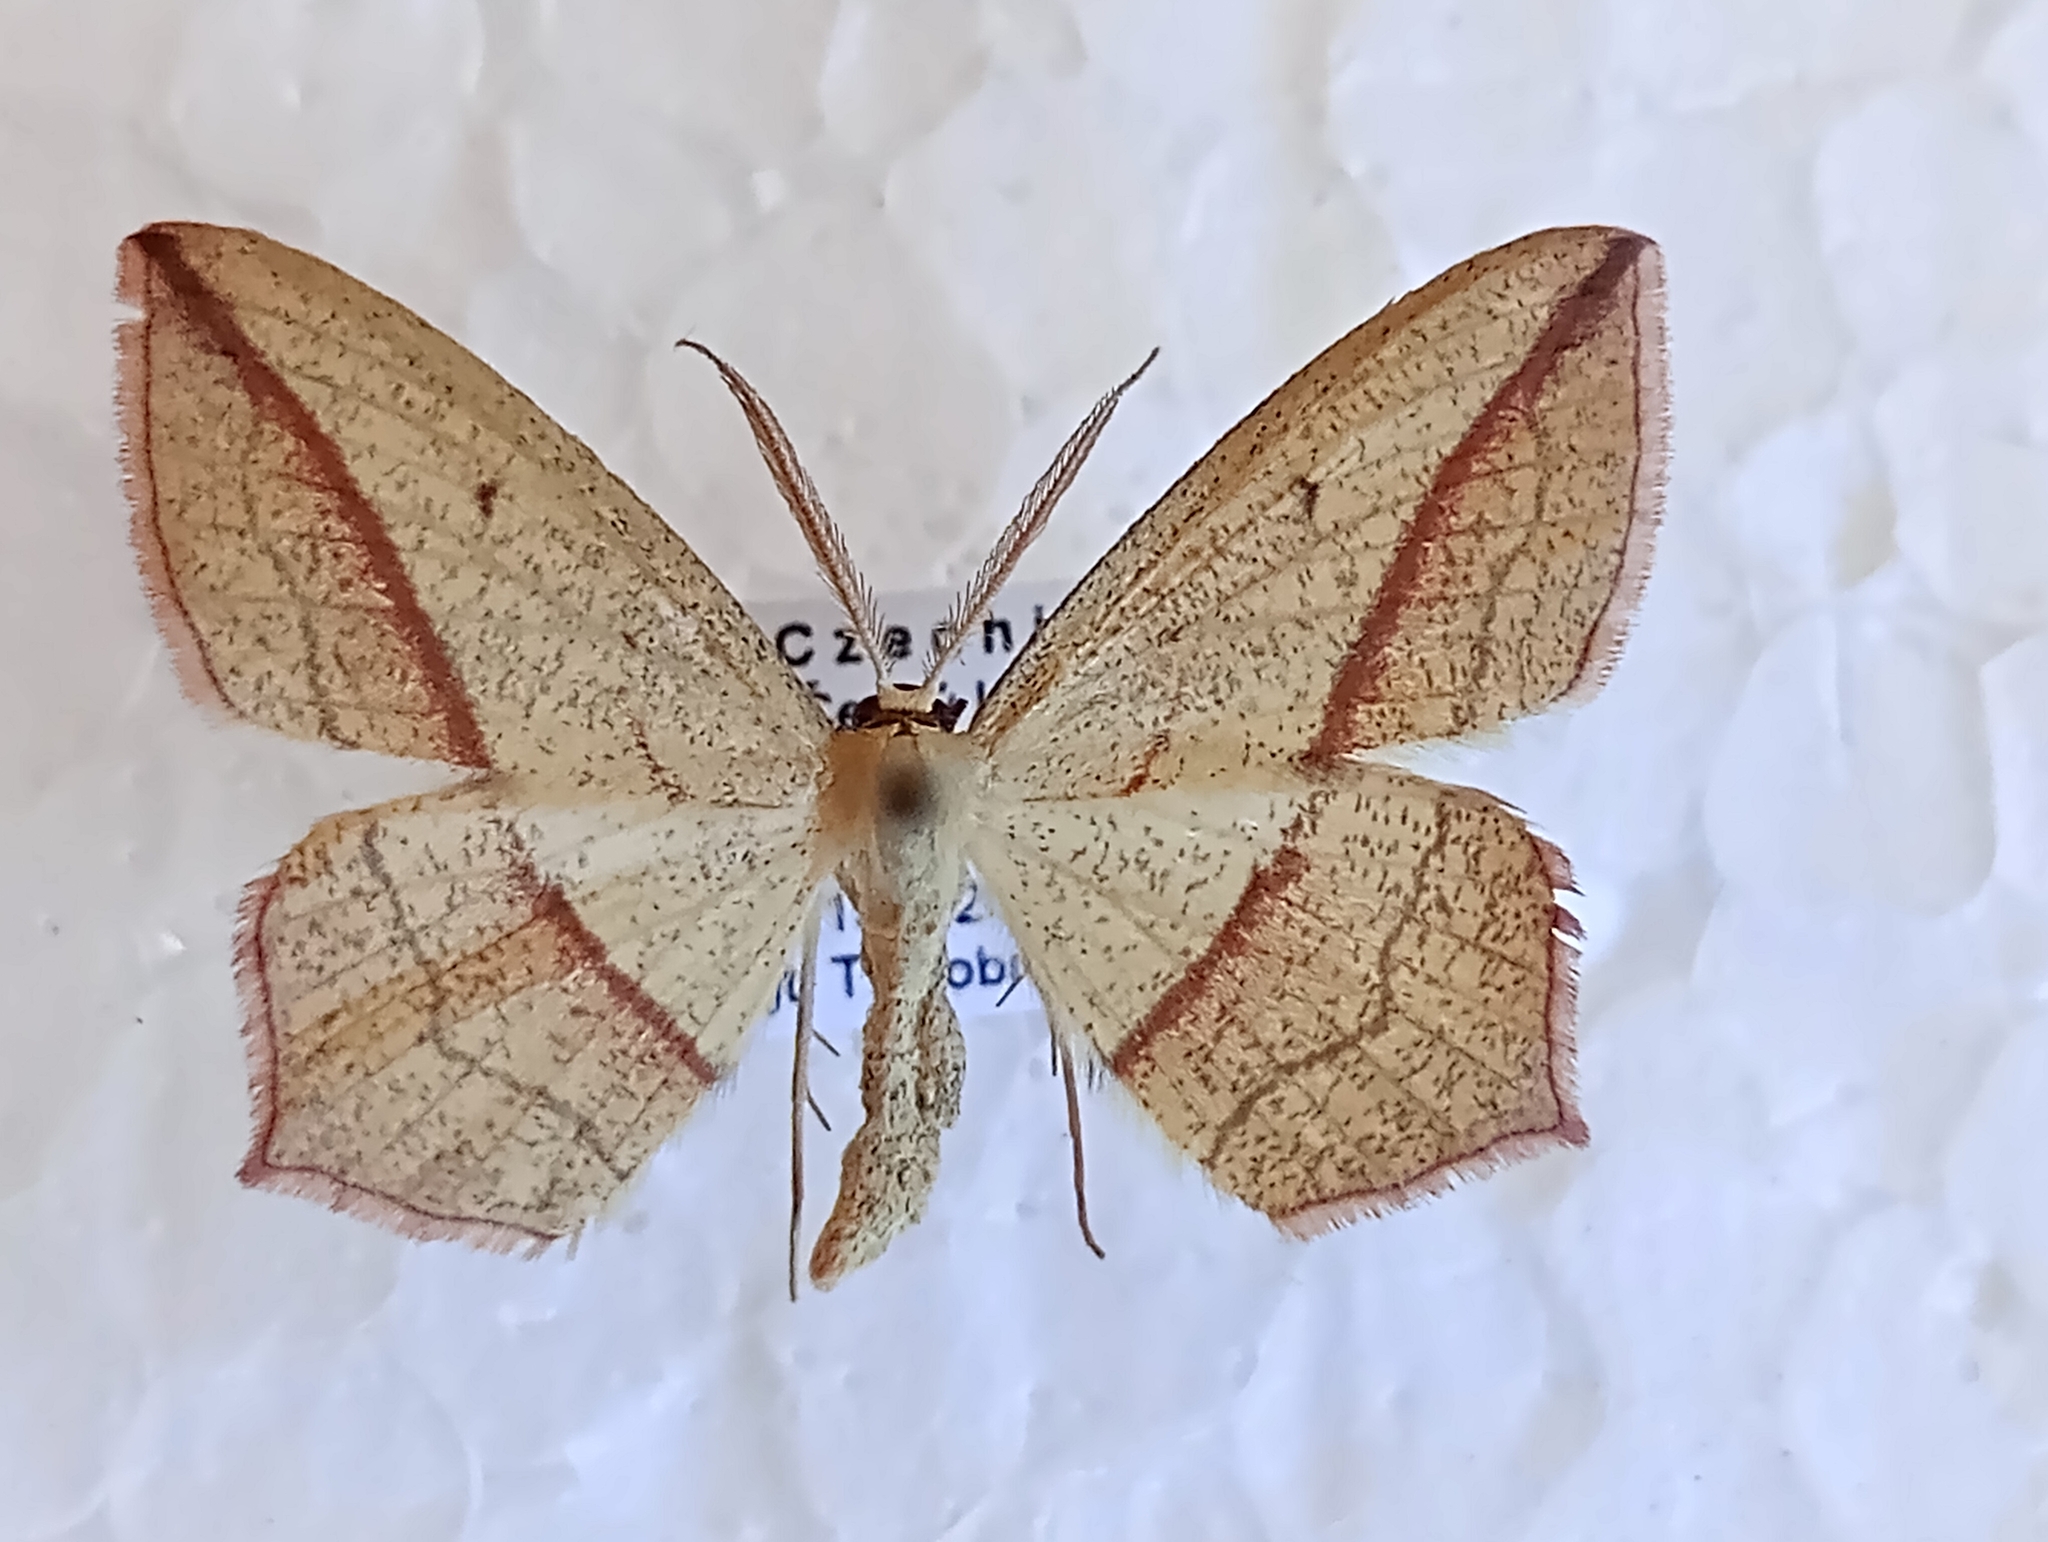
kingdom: Animalia
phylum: Arthropoda
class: Insecta
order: Lepidoptera
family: Geometridae
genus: Timandra
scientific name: Timandra comae
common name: Blood-vein
